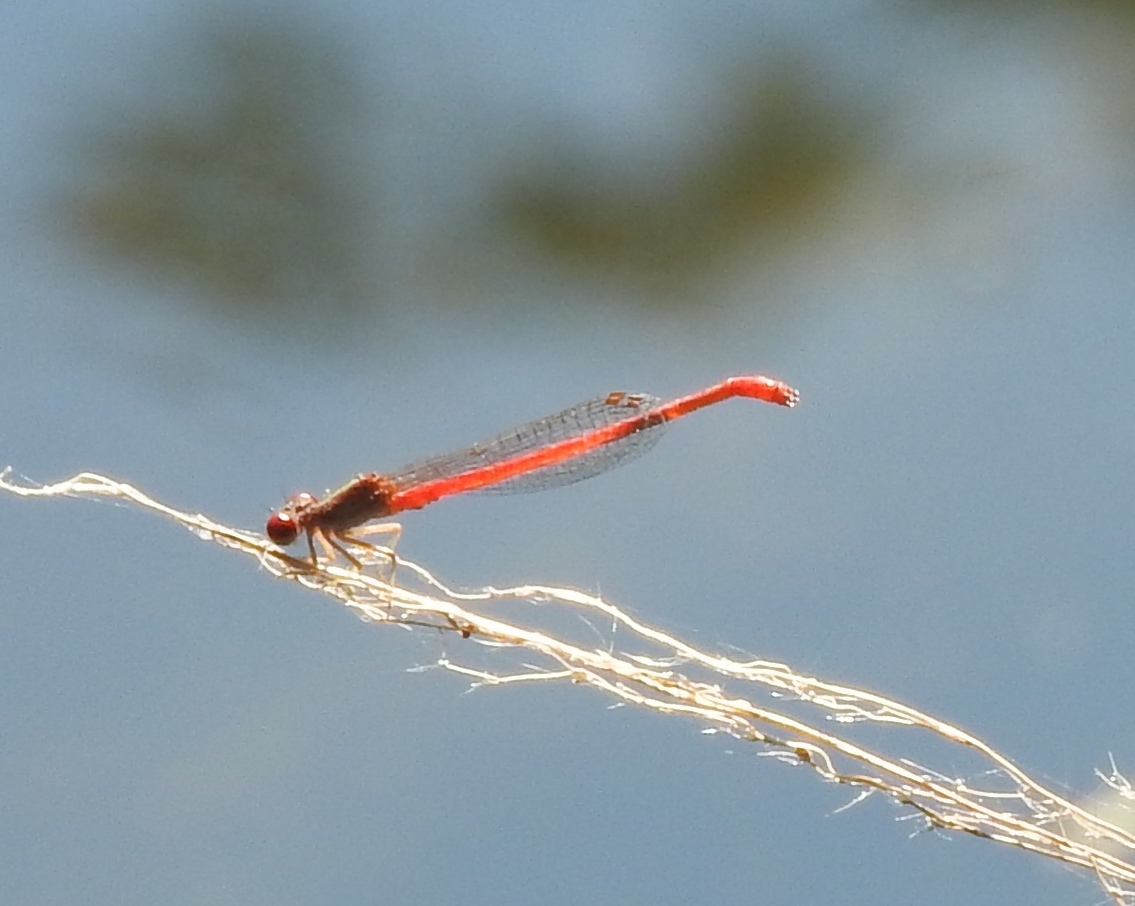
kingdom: Animalia
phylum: Arthropoda
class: Insecta
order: Odonata
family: Coenagrionidae
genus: Telebasis
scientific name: Telebasis salva
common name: Desert firetail
